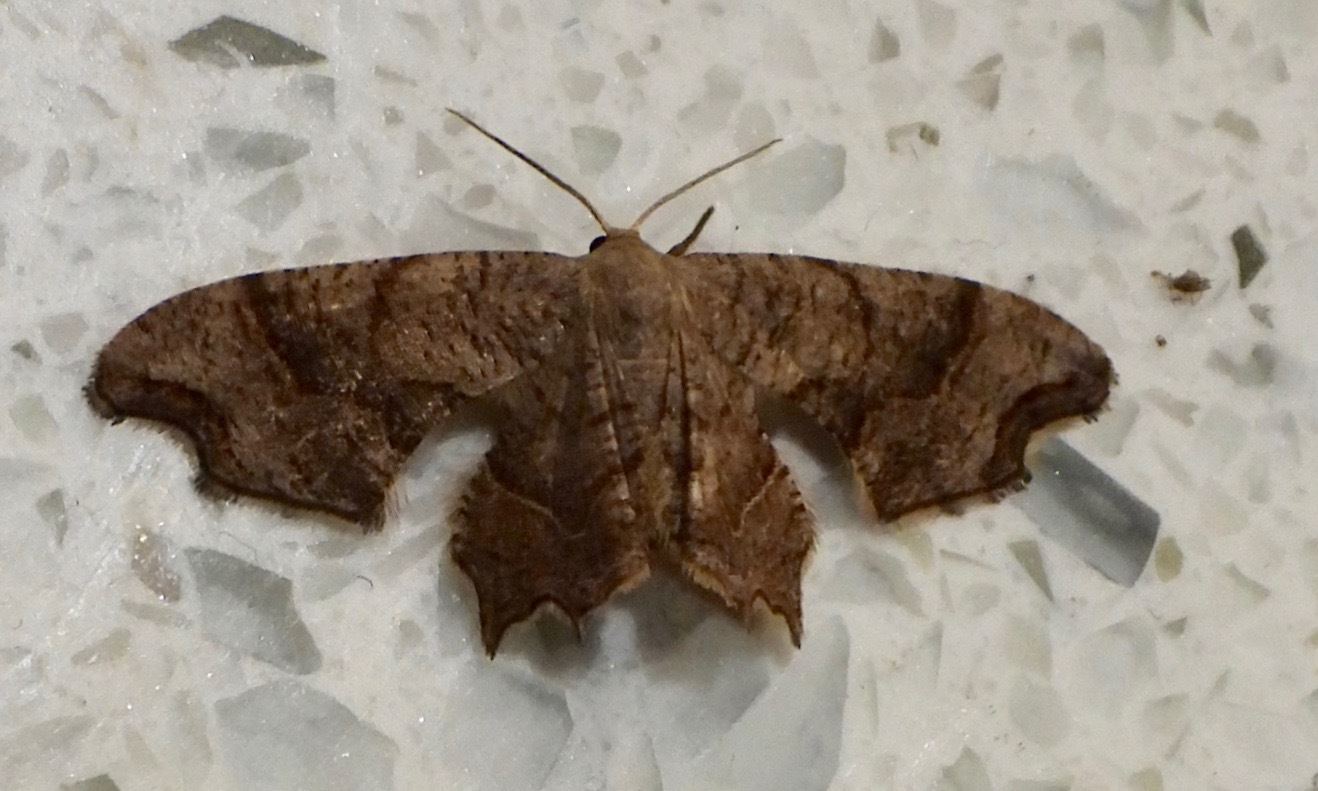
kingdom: Animalia
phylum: Arthropoda
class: Insecta
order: Lepidoptera
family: Uraniidae
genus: Epiplema
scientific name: Epiplema Calledapteryx dryopterata
